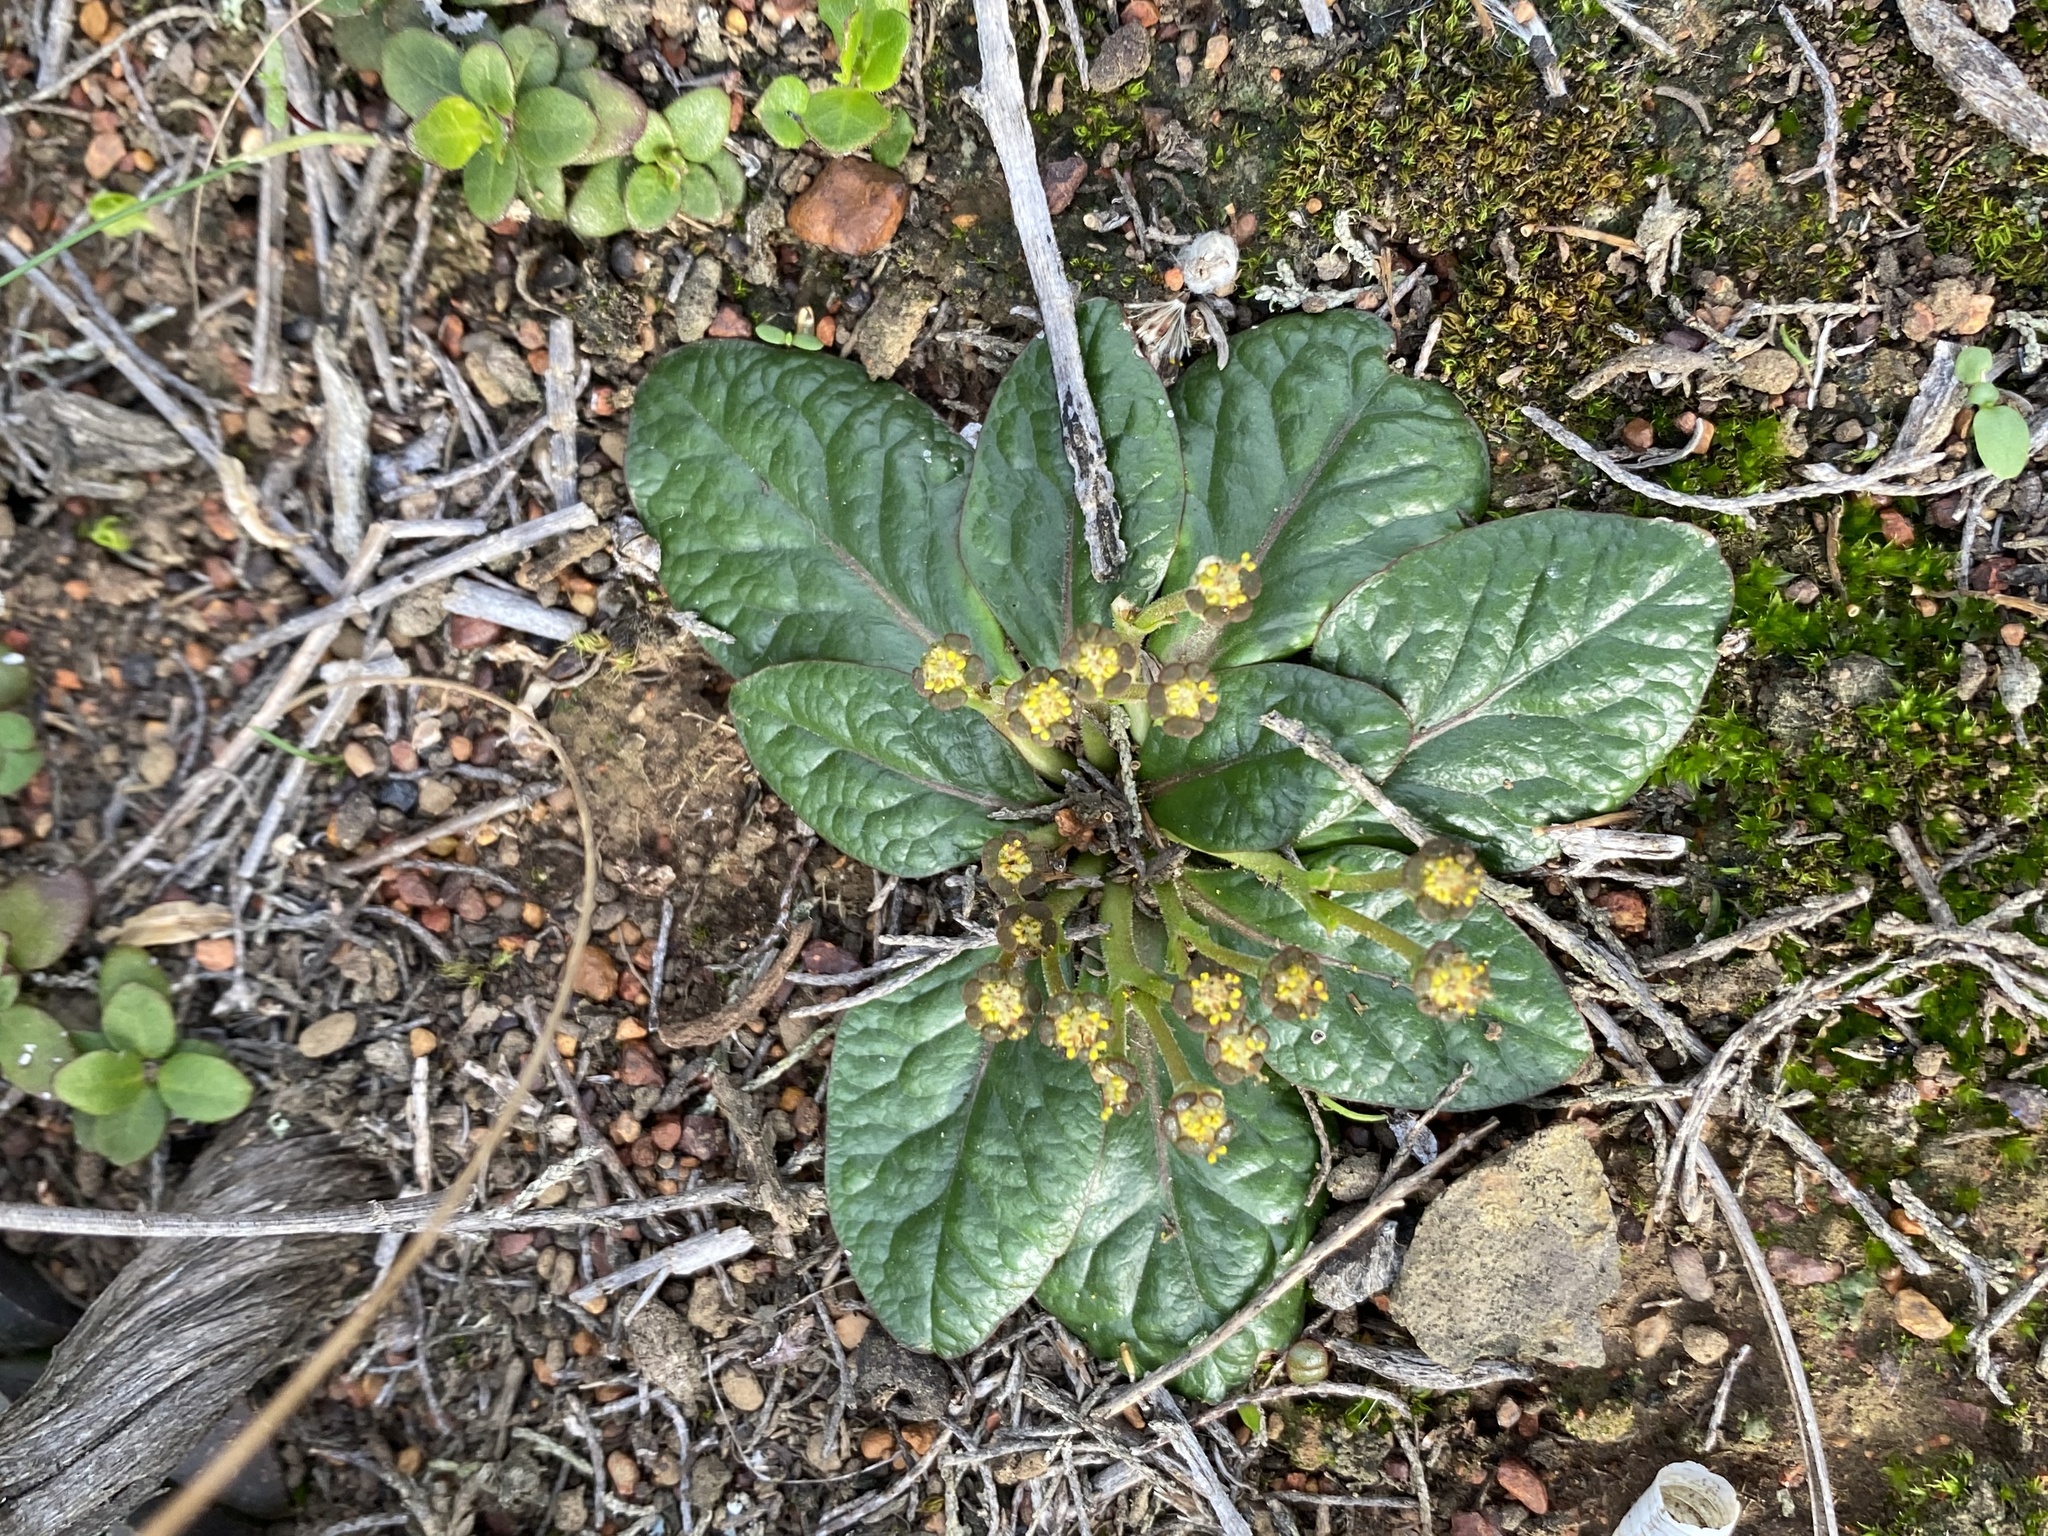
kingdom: Plantae
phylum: Tracheophyta
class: Magnoliopsida
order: Malpighiales
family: Euphorbiaceae
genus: Euphorbia
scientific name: Euphorbia ecklonii
